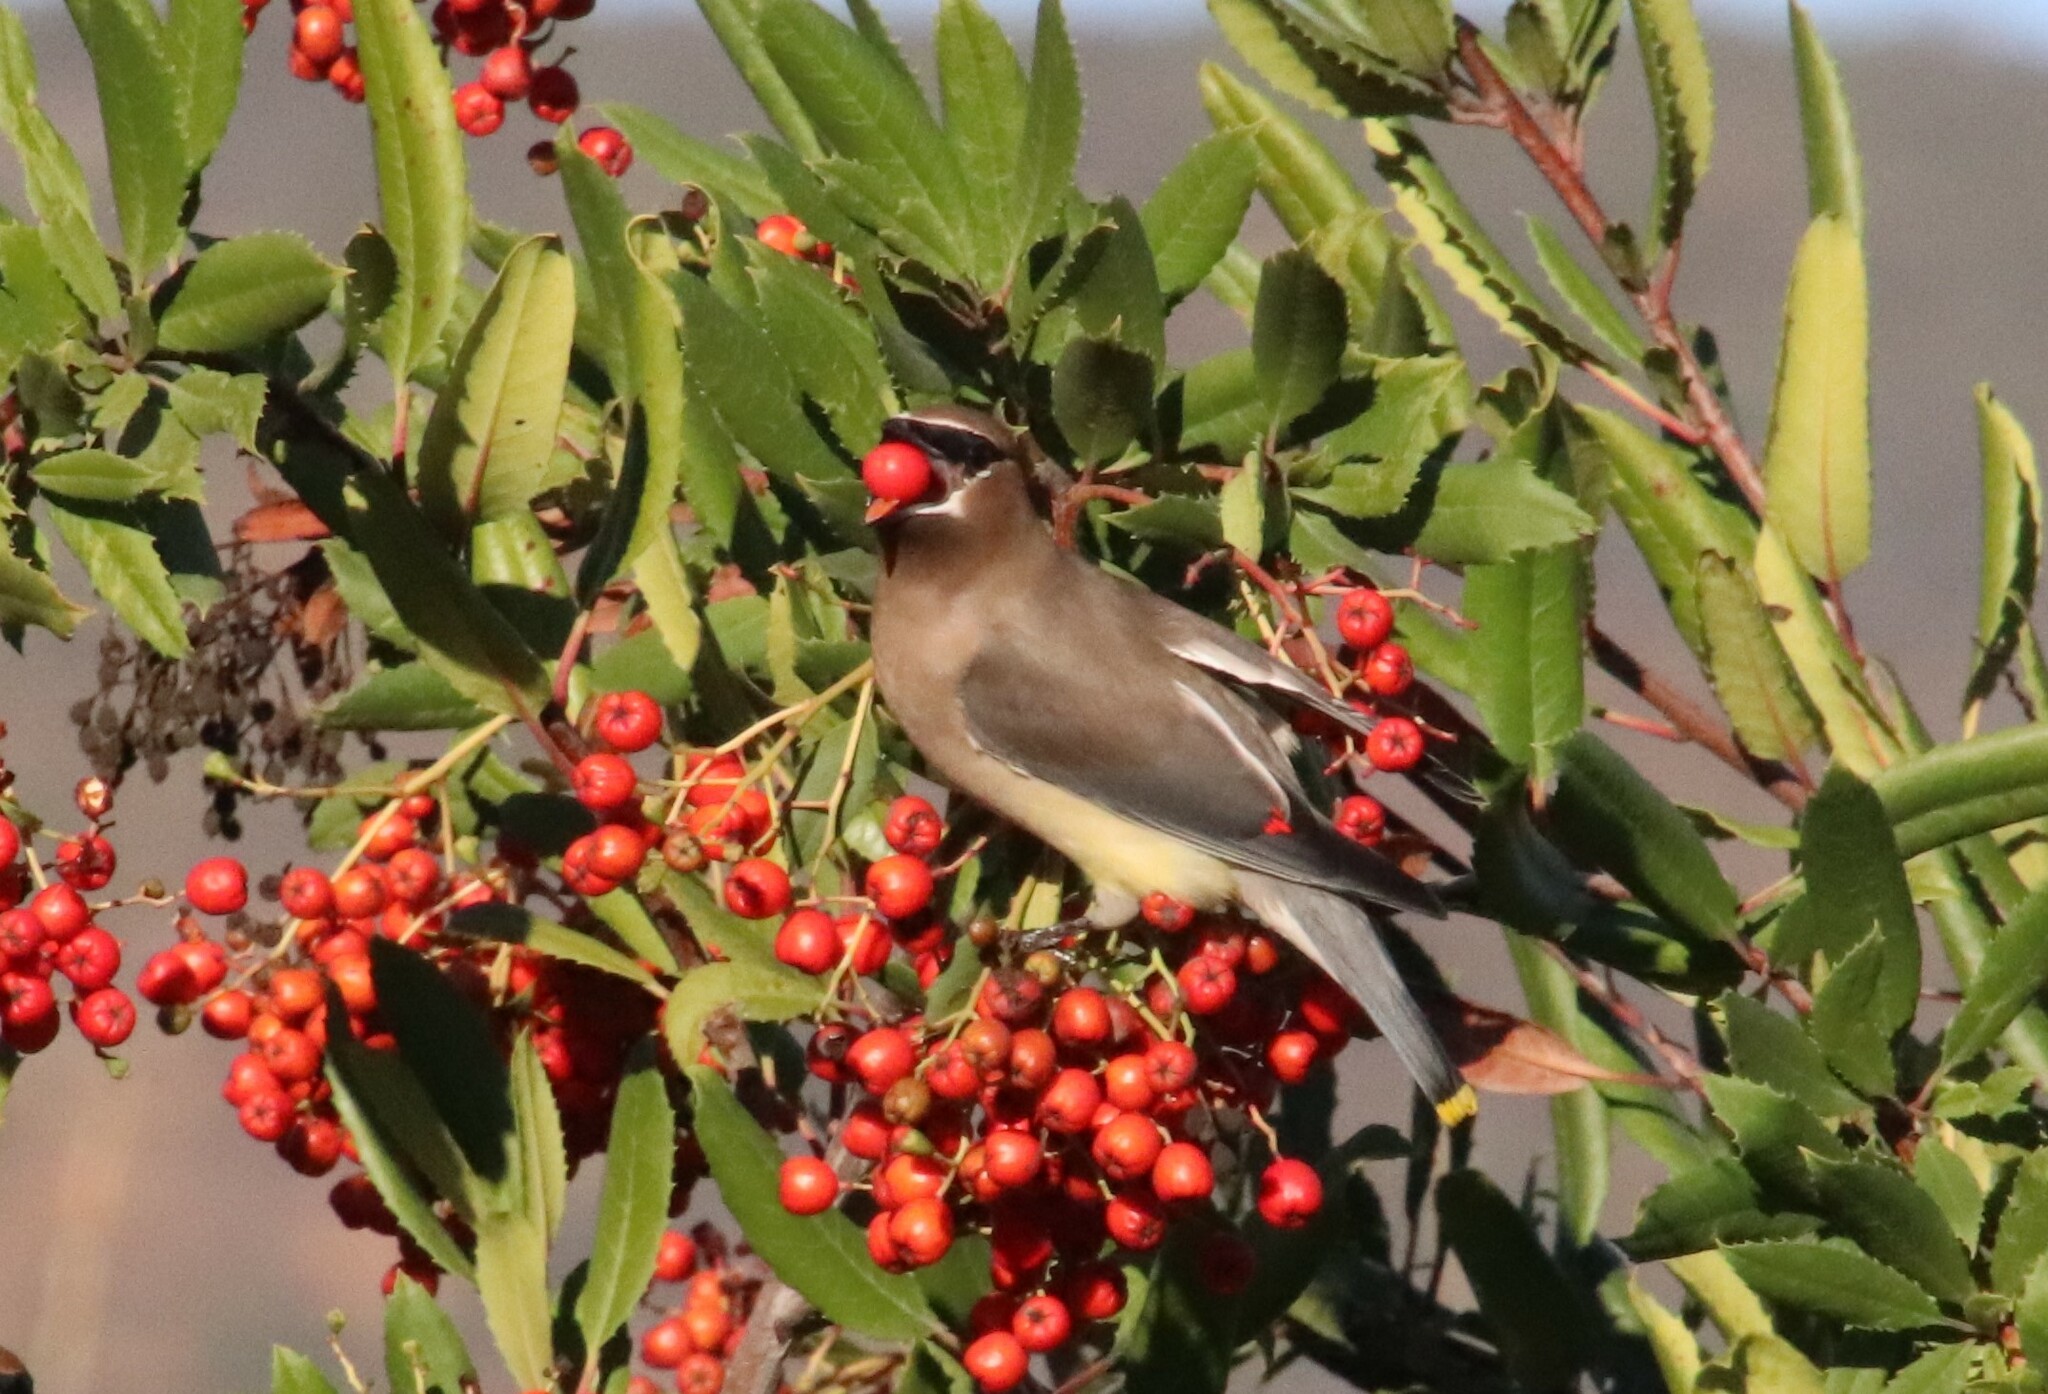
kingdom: Animalia
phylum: Chordata
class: Aves
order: Passeriformes
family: Bombycillidae
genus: Bombycilla
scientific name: Bombycilla cedrorum
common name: Cedar waxwing
